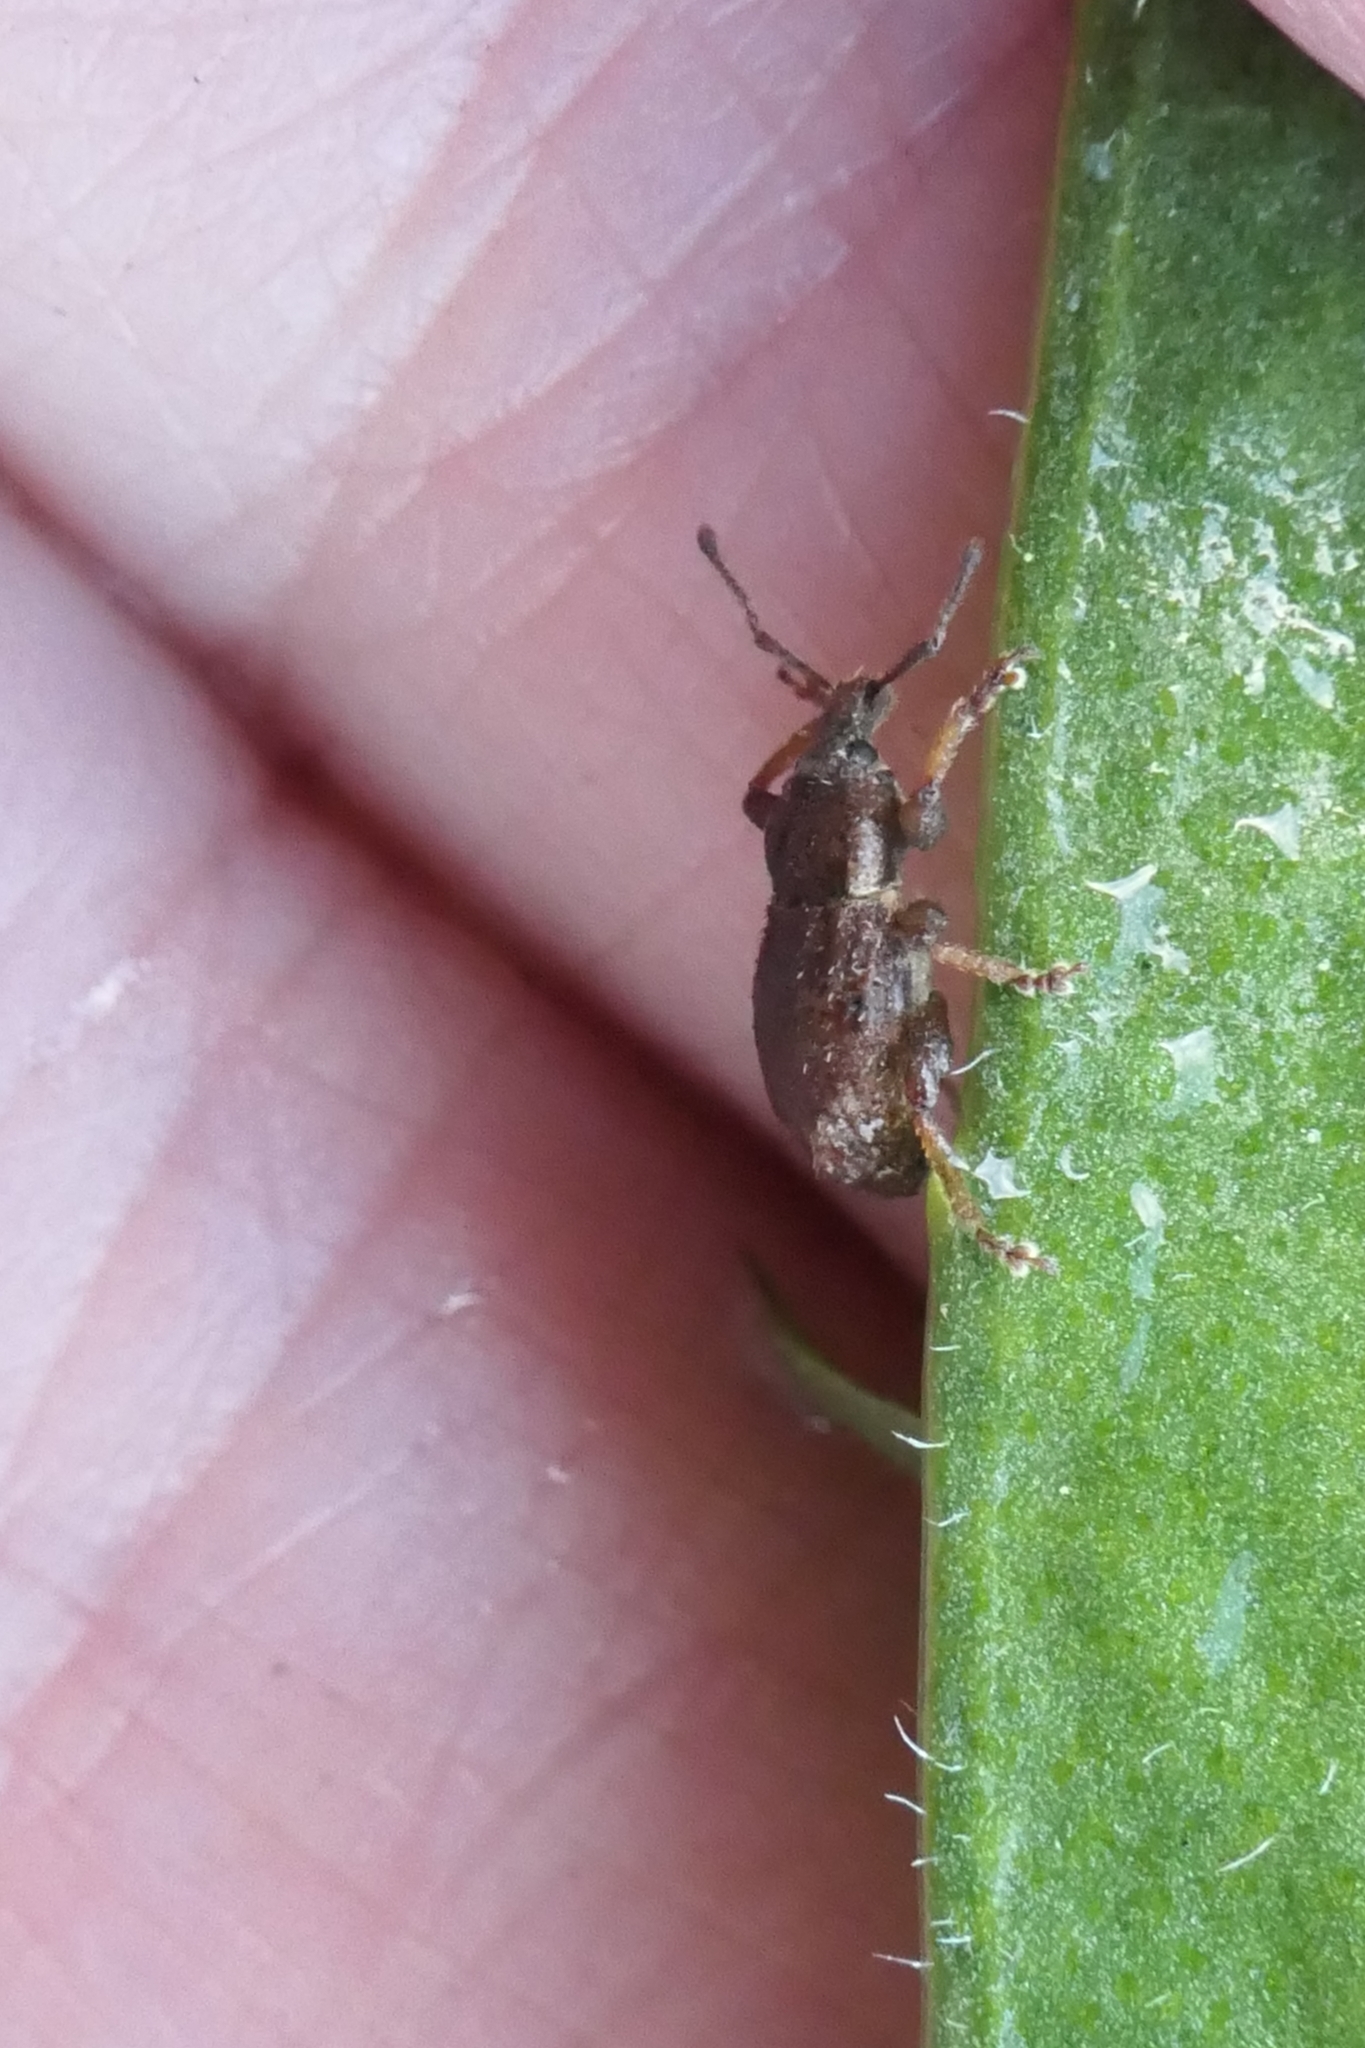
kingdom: Animalia
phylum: Arthropoda
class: Insecta
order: Coleoptera
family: Curculionidae
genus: Chalepistes
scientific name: Chalepistes aequalis
